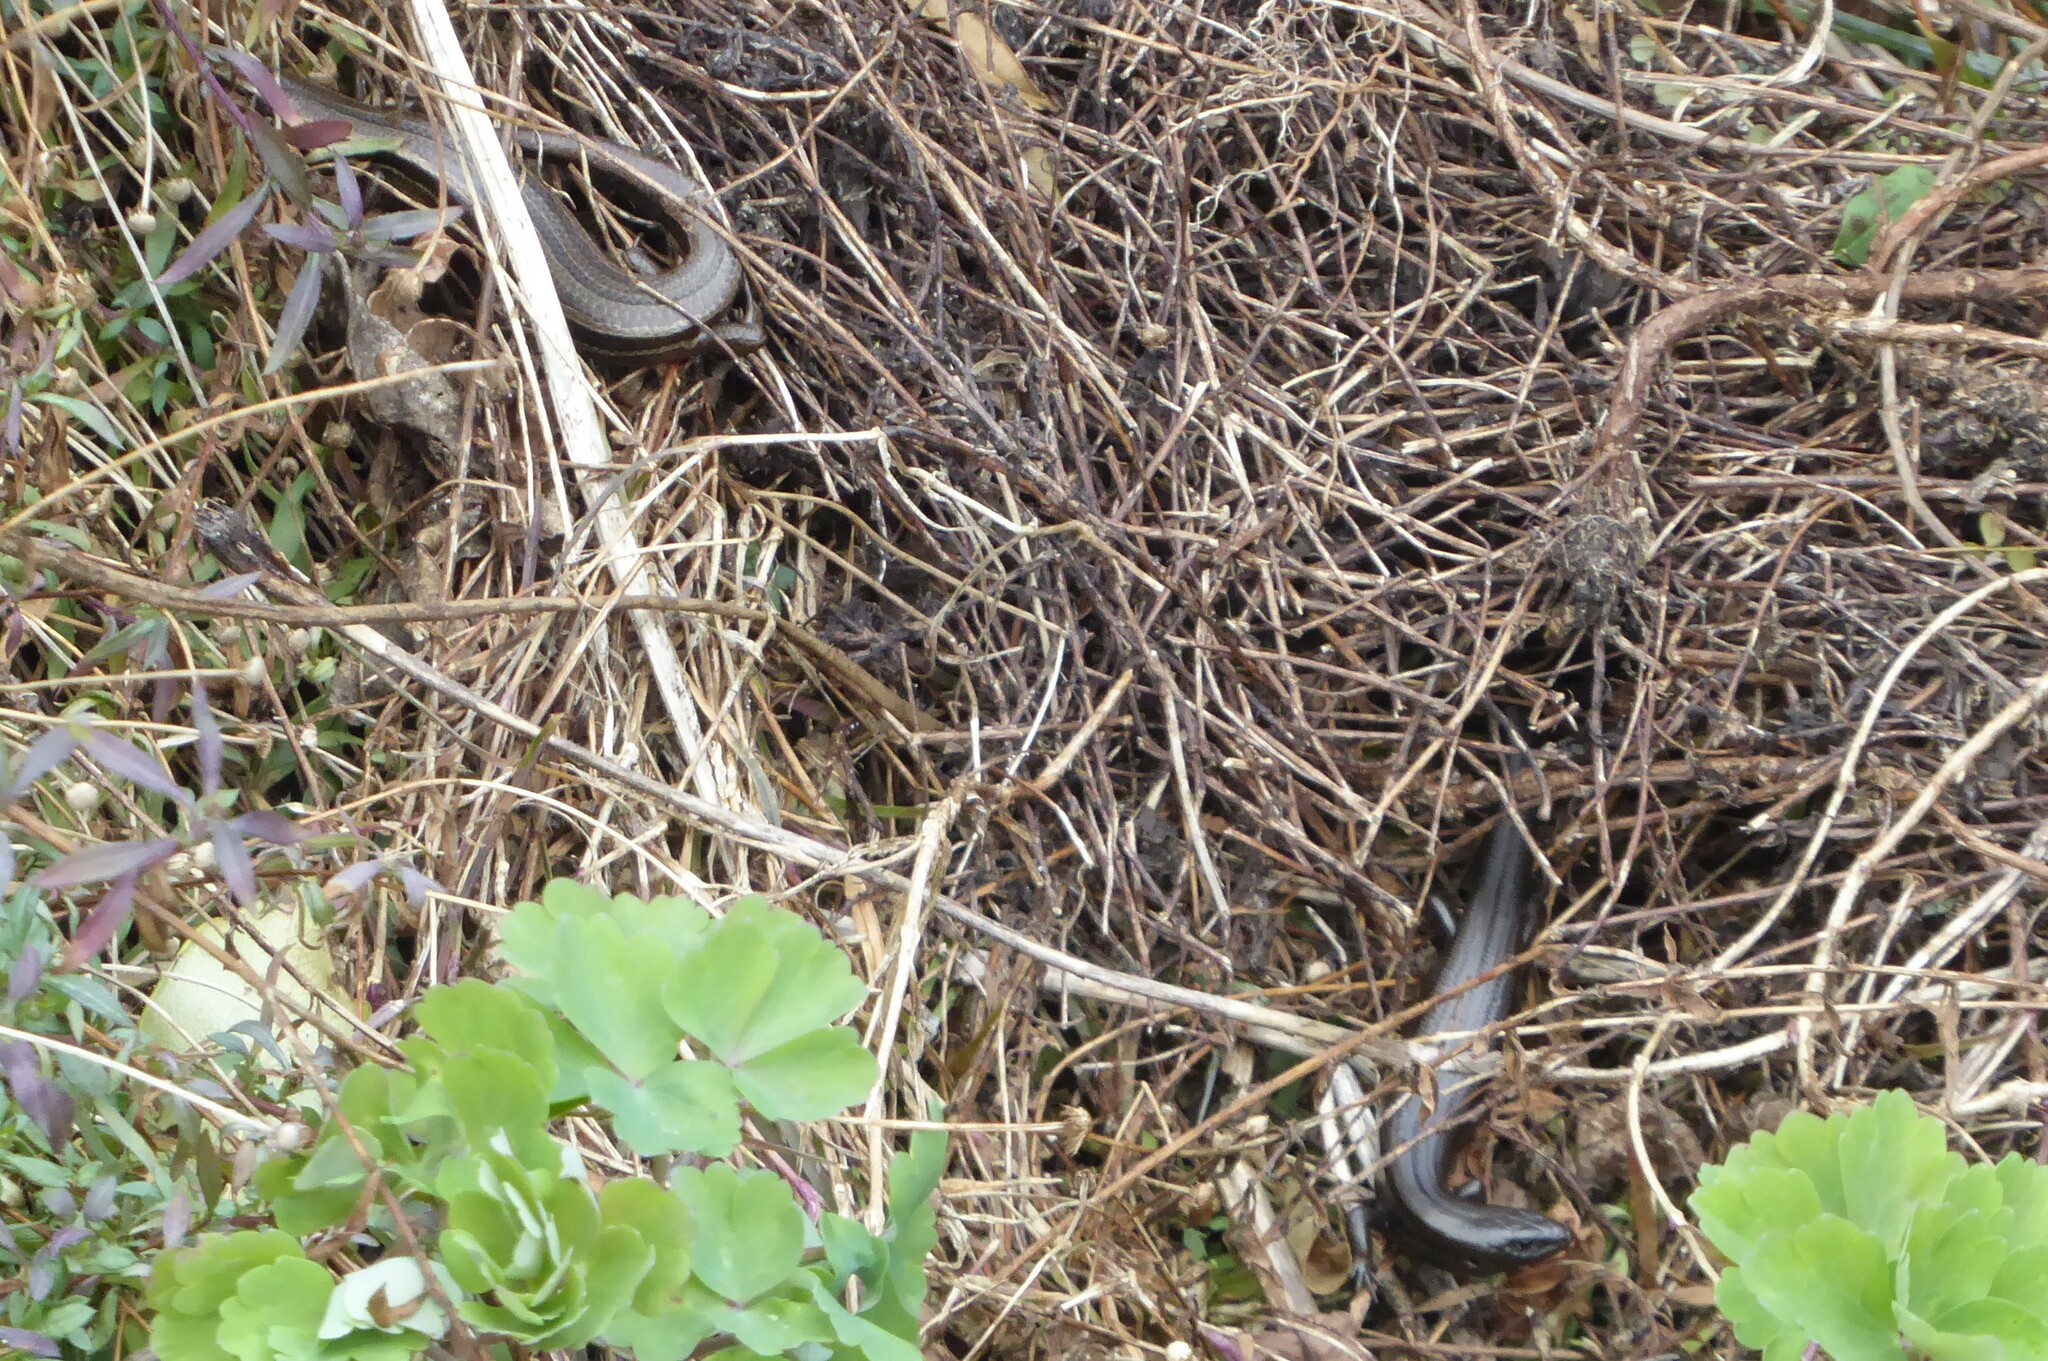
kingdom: Animalia
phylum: Chordata
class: Squamata
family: Scincidae
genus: Oligosoma
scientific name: Oligosoma polychroma
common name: Common new zealand skink
